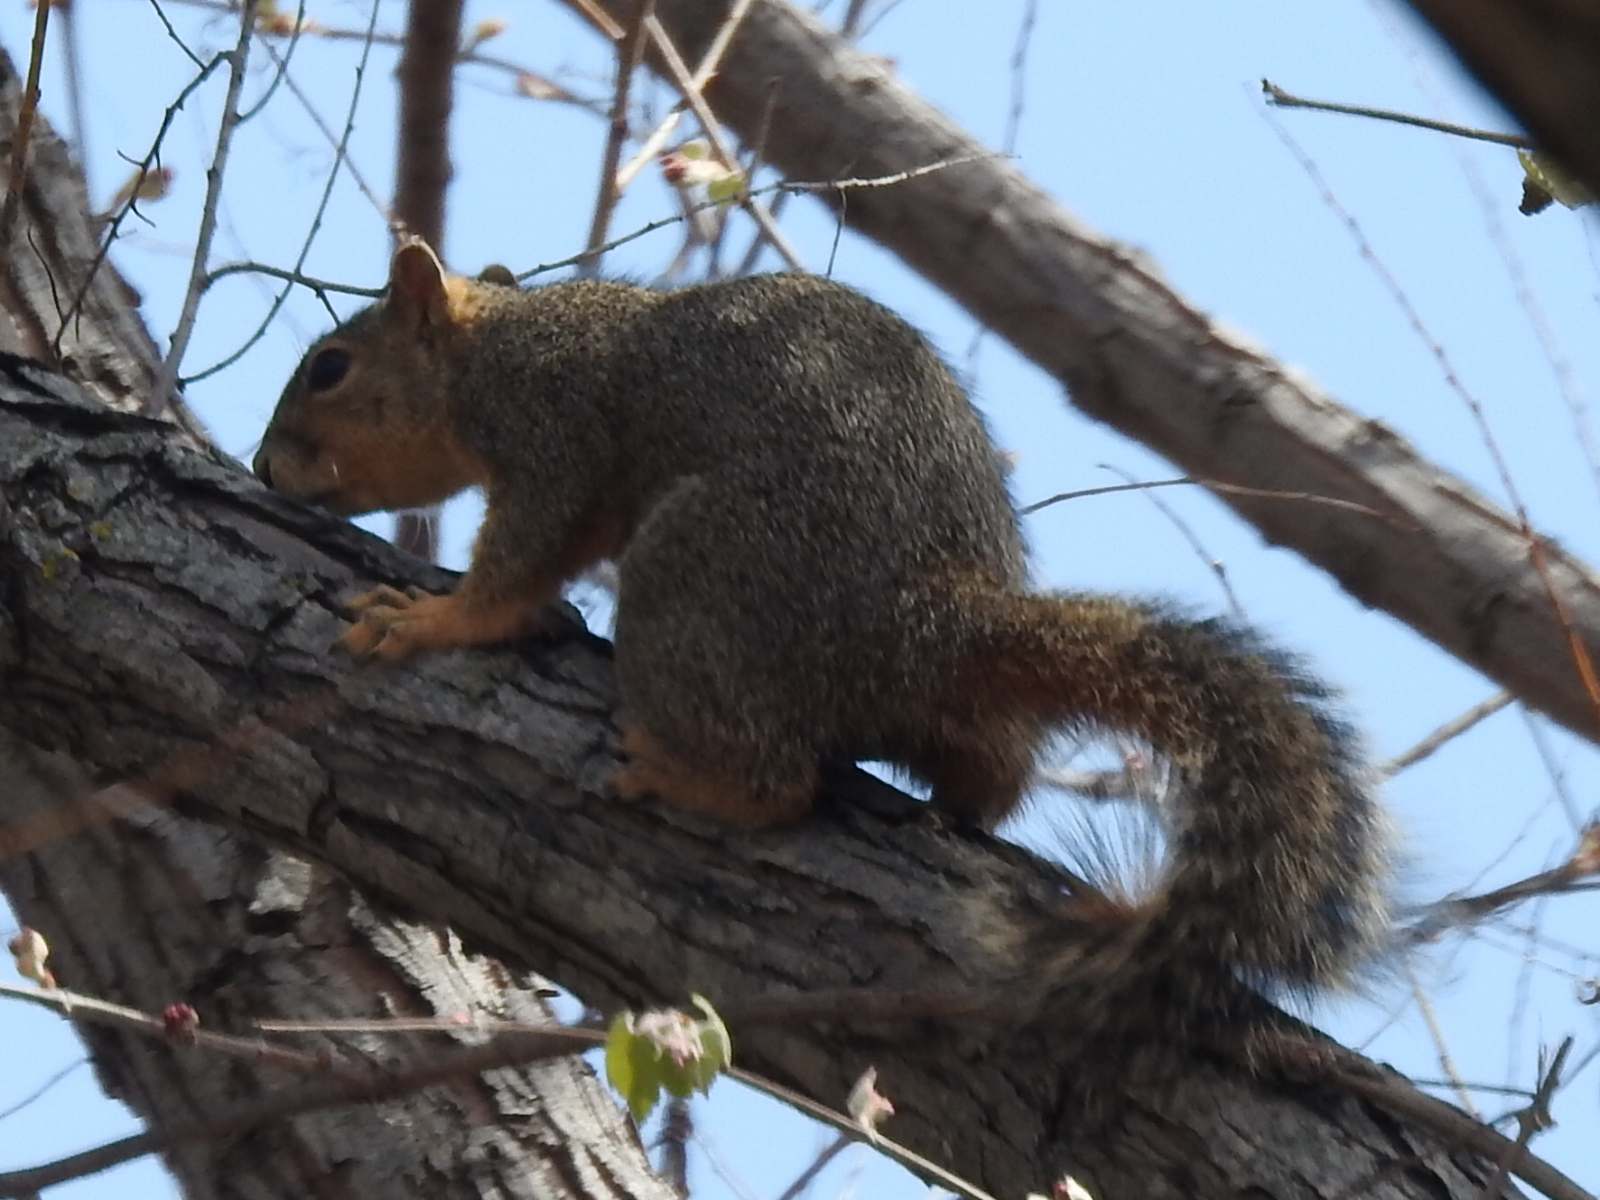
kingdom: Animalia
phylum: Chordata
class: Mammalia
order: Rodentia
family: Sciuridae
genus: Sciurus
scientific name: Sciurus niger
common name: Fox squirrel
